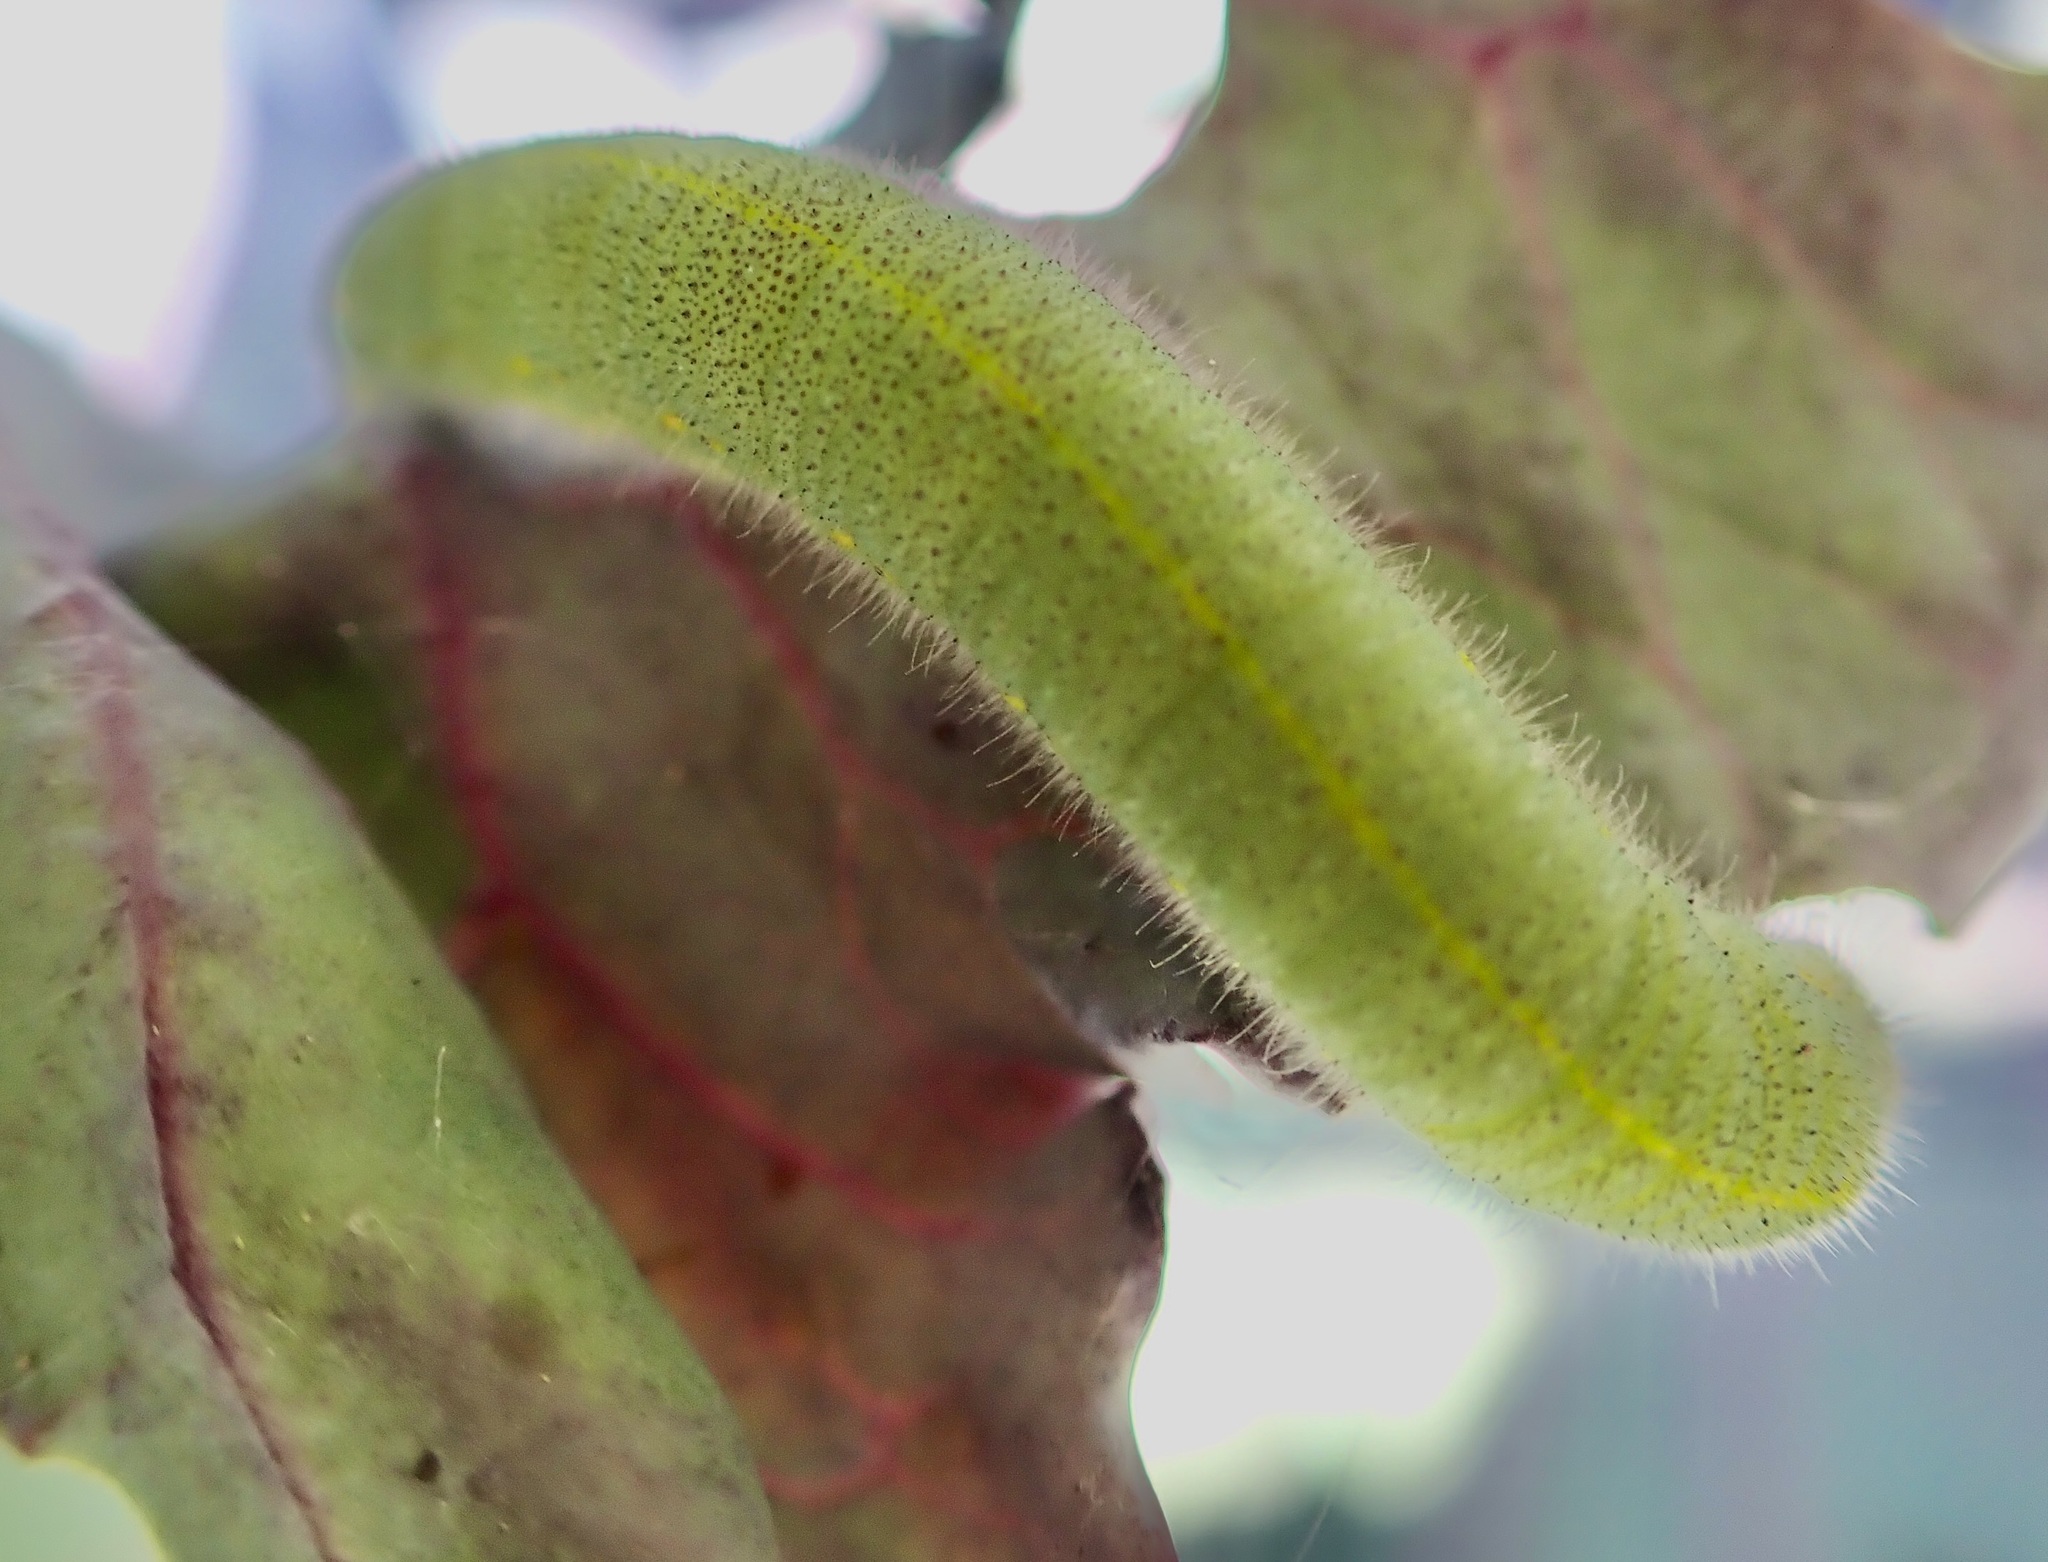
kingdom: Animalia
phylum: Arthropoda
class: Insecta
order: Lepidoptera
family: Pieridae
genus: Pieris
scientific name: Pieris rapae
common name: Small white
